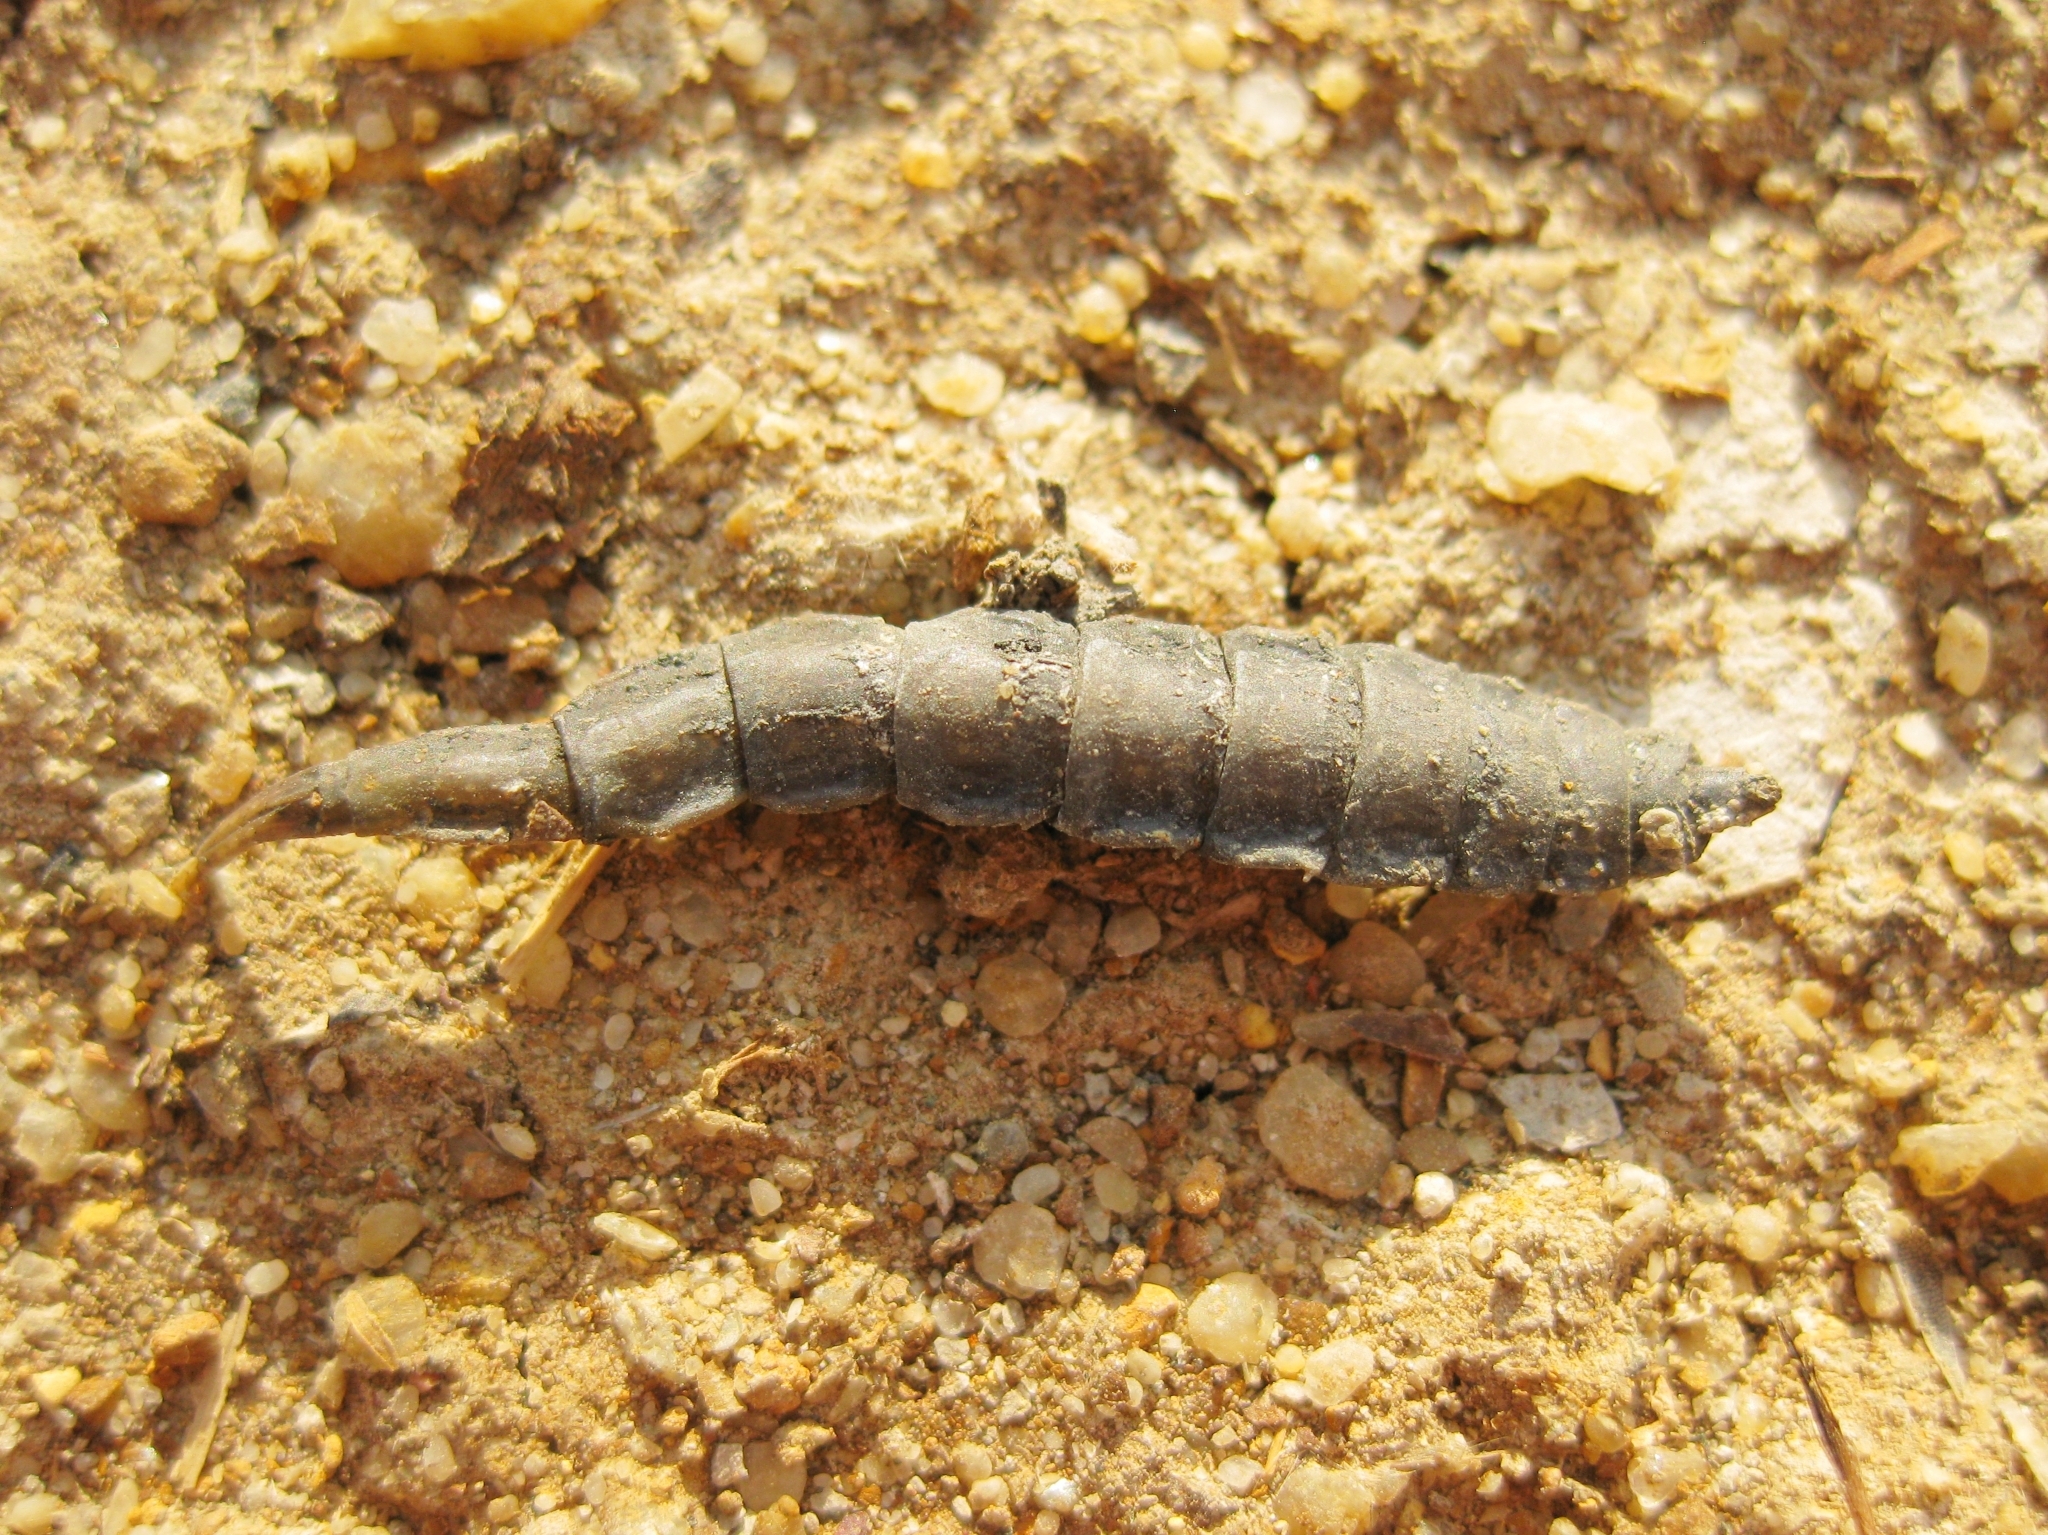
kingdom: Animalia
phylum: Arthropoda
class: Insecta
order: Diptera
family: Stratiomyidae
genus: Stratiomys
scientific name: Stratiomys
